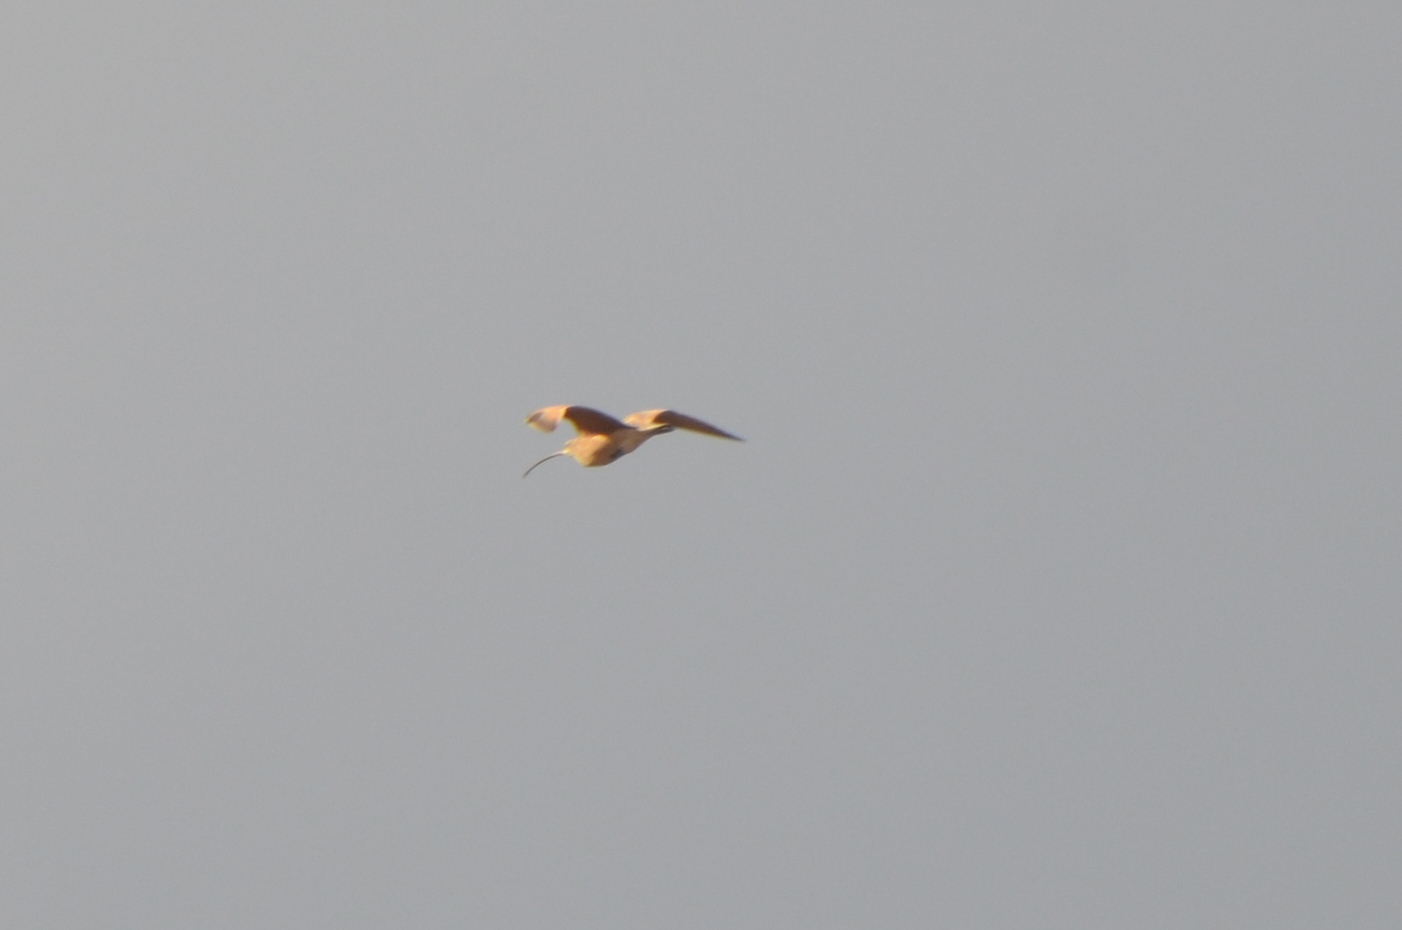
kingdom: Animalia
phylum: Chordata
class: Aves
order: Charadriiformes
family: Scolopacidae
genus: Numenius
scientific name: Numenius americanus
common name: Long-billed curlew
